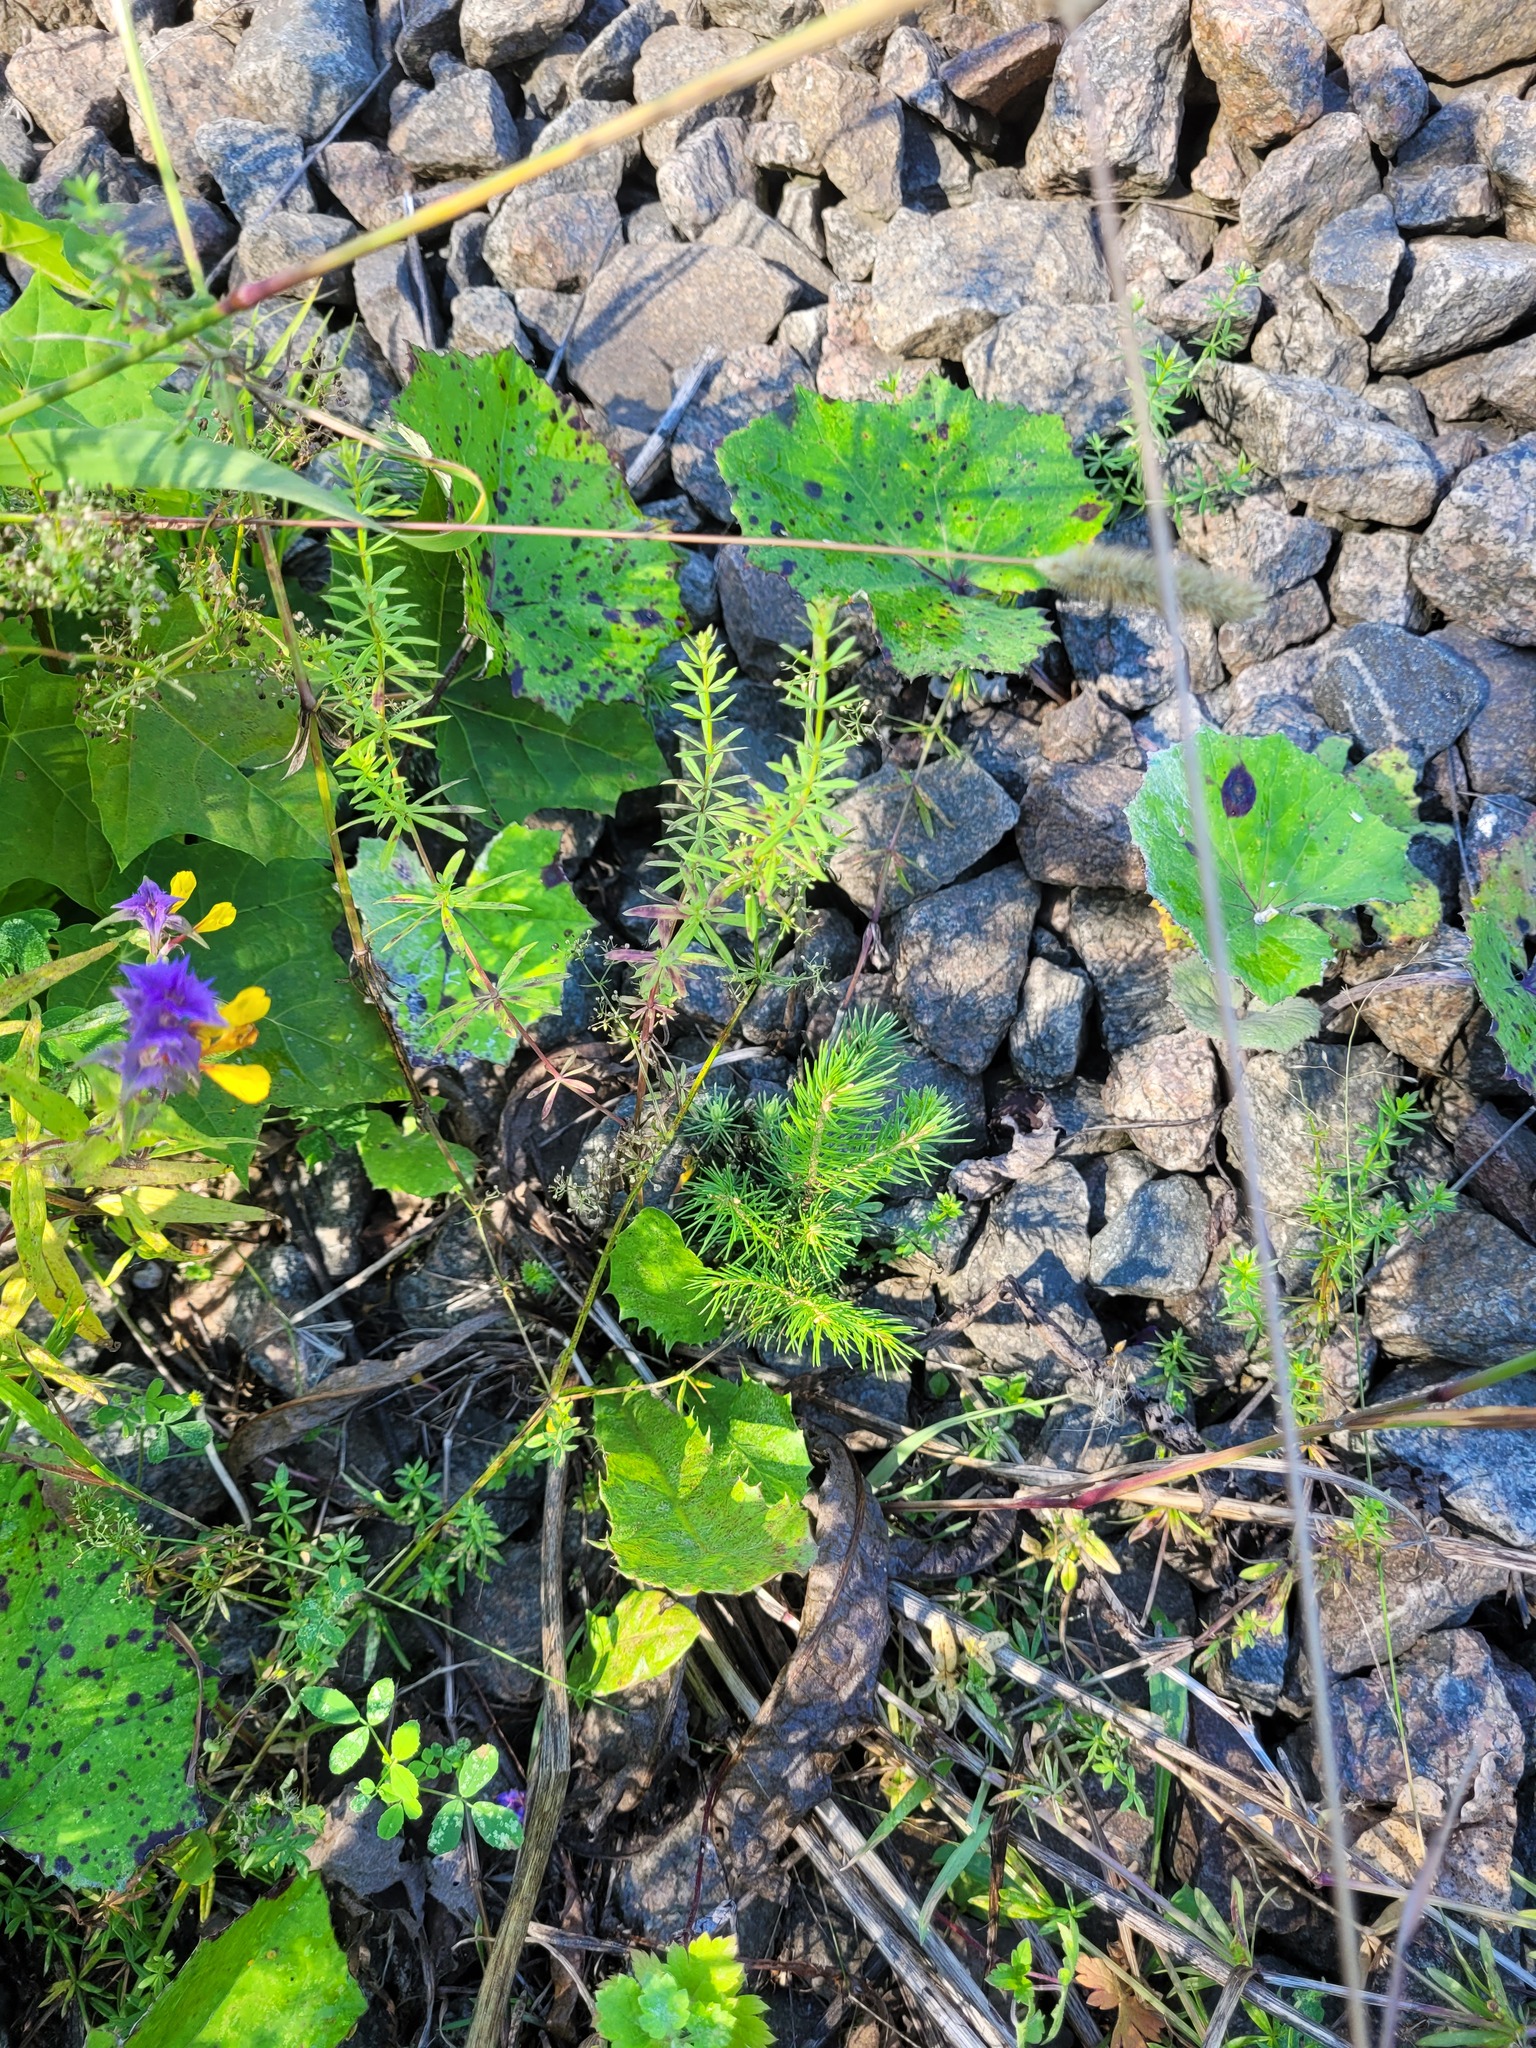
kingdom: Plantae
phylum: Tracheophyta
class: Pinopsida
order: Pinales
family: Pinaceae
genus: Picea
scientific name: Picea abies
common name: Norway spruce
